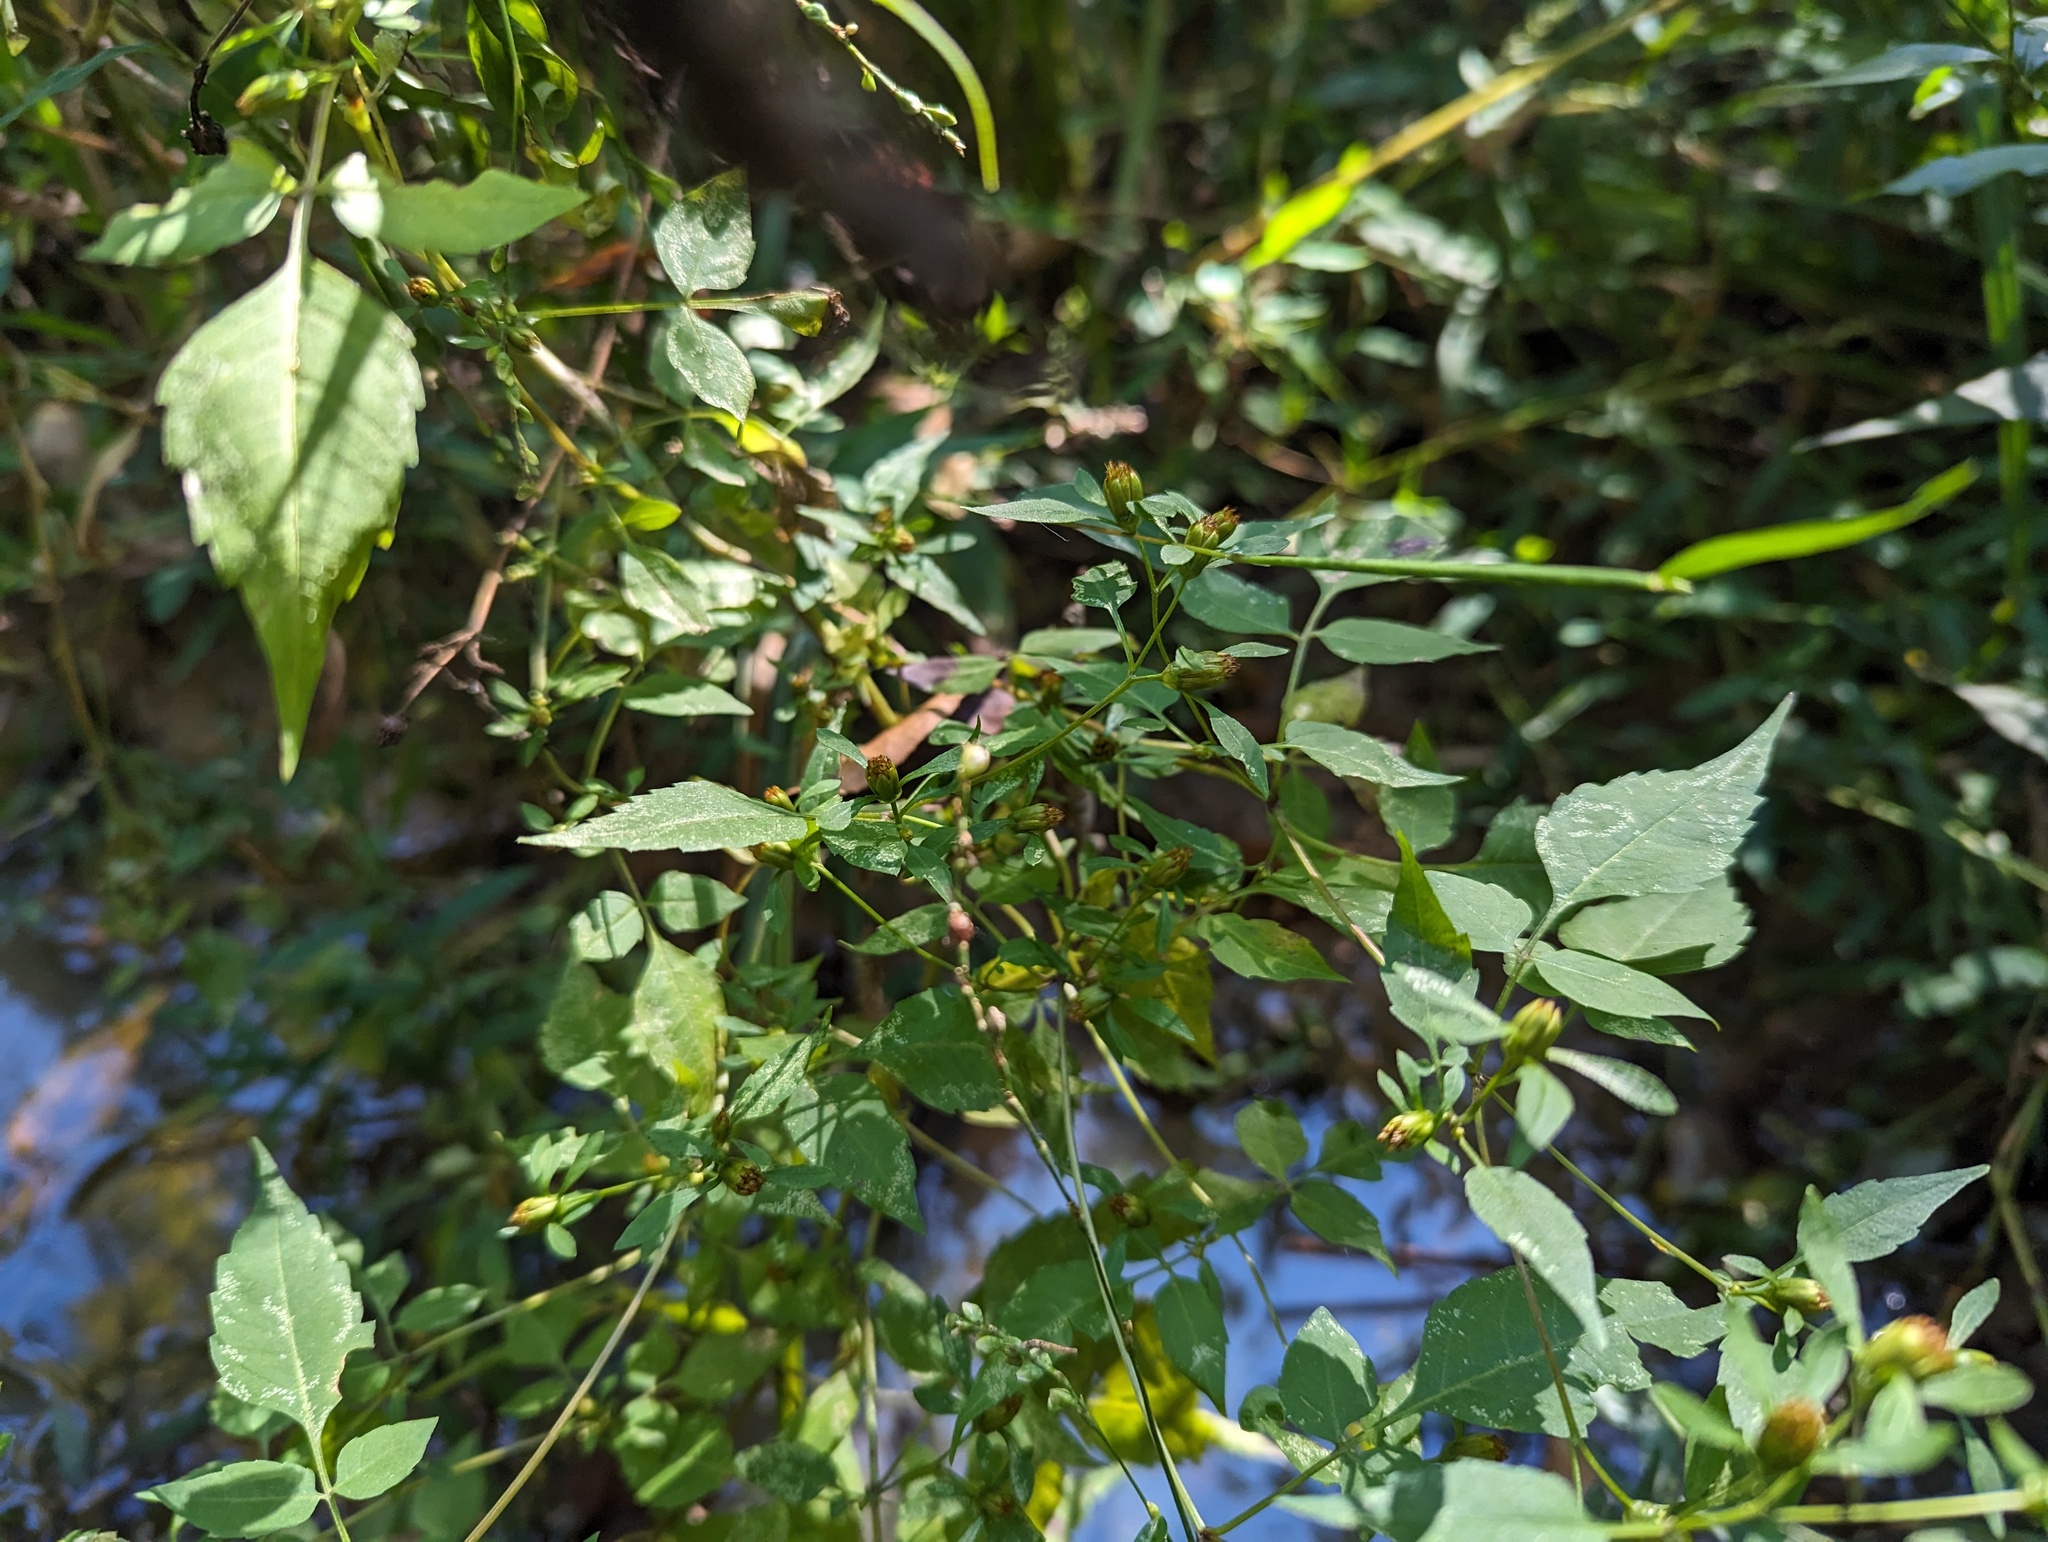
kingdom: Plantae
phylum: Tracheophyta
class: Magnoliopsida
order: Asterales
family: Asteraceae
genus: Bidens
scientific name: Bidens discoidea
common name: Discoide beggarticks
